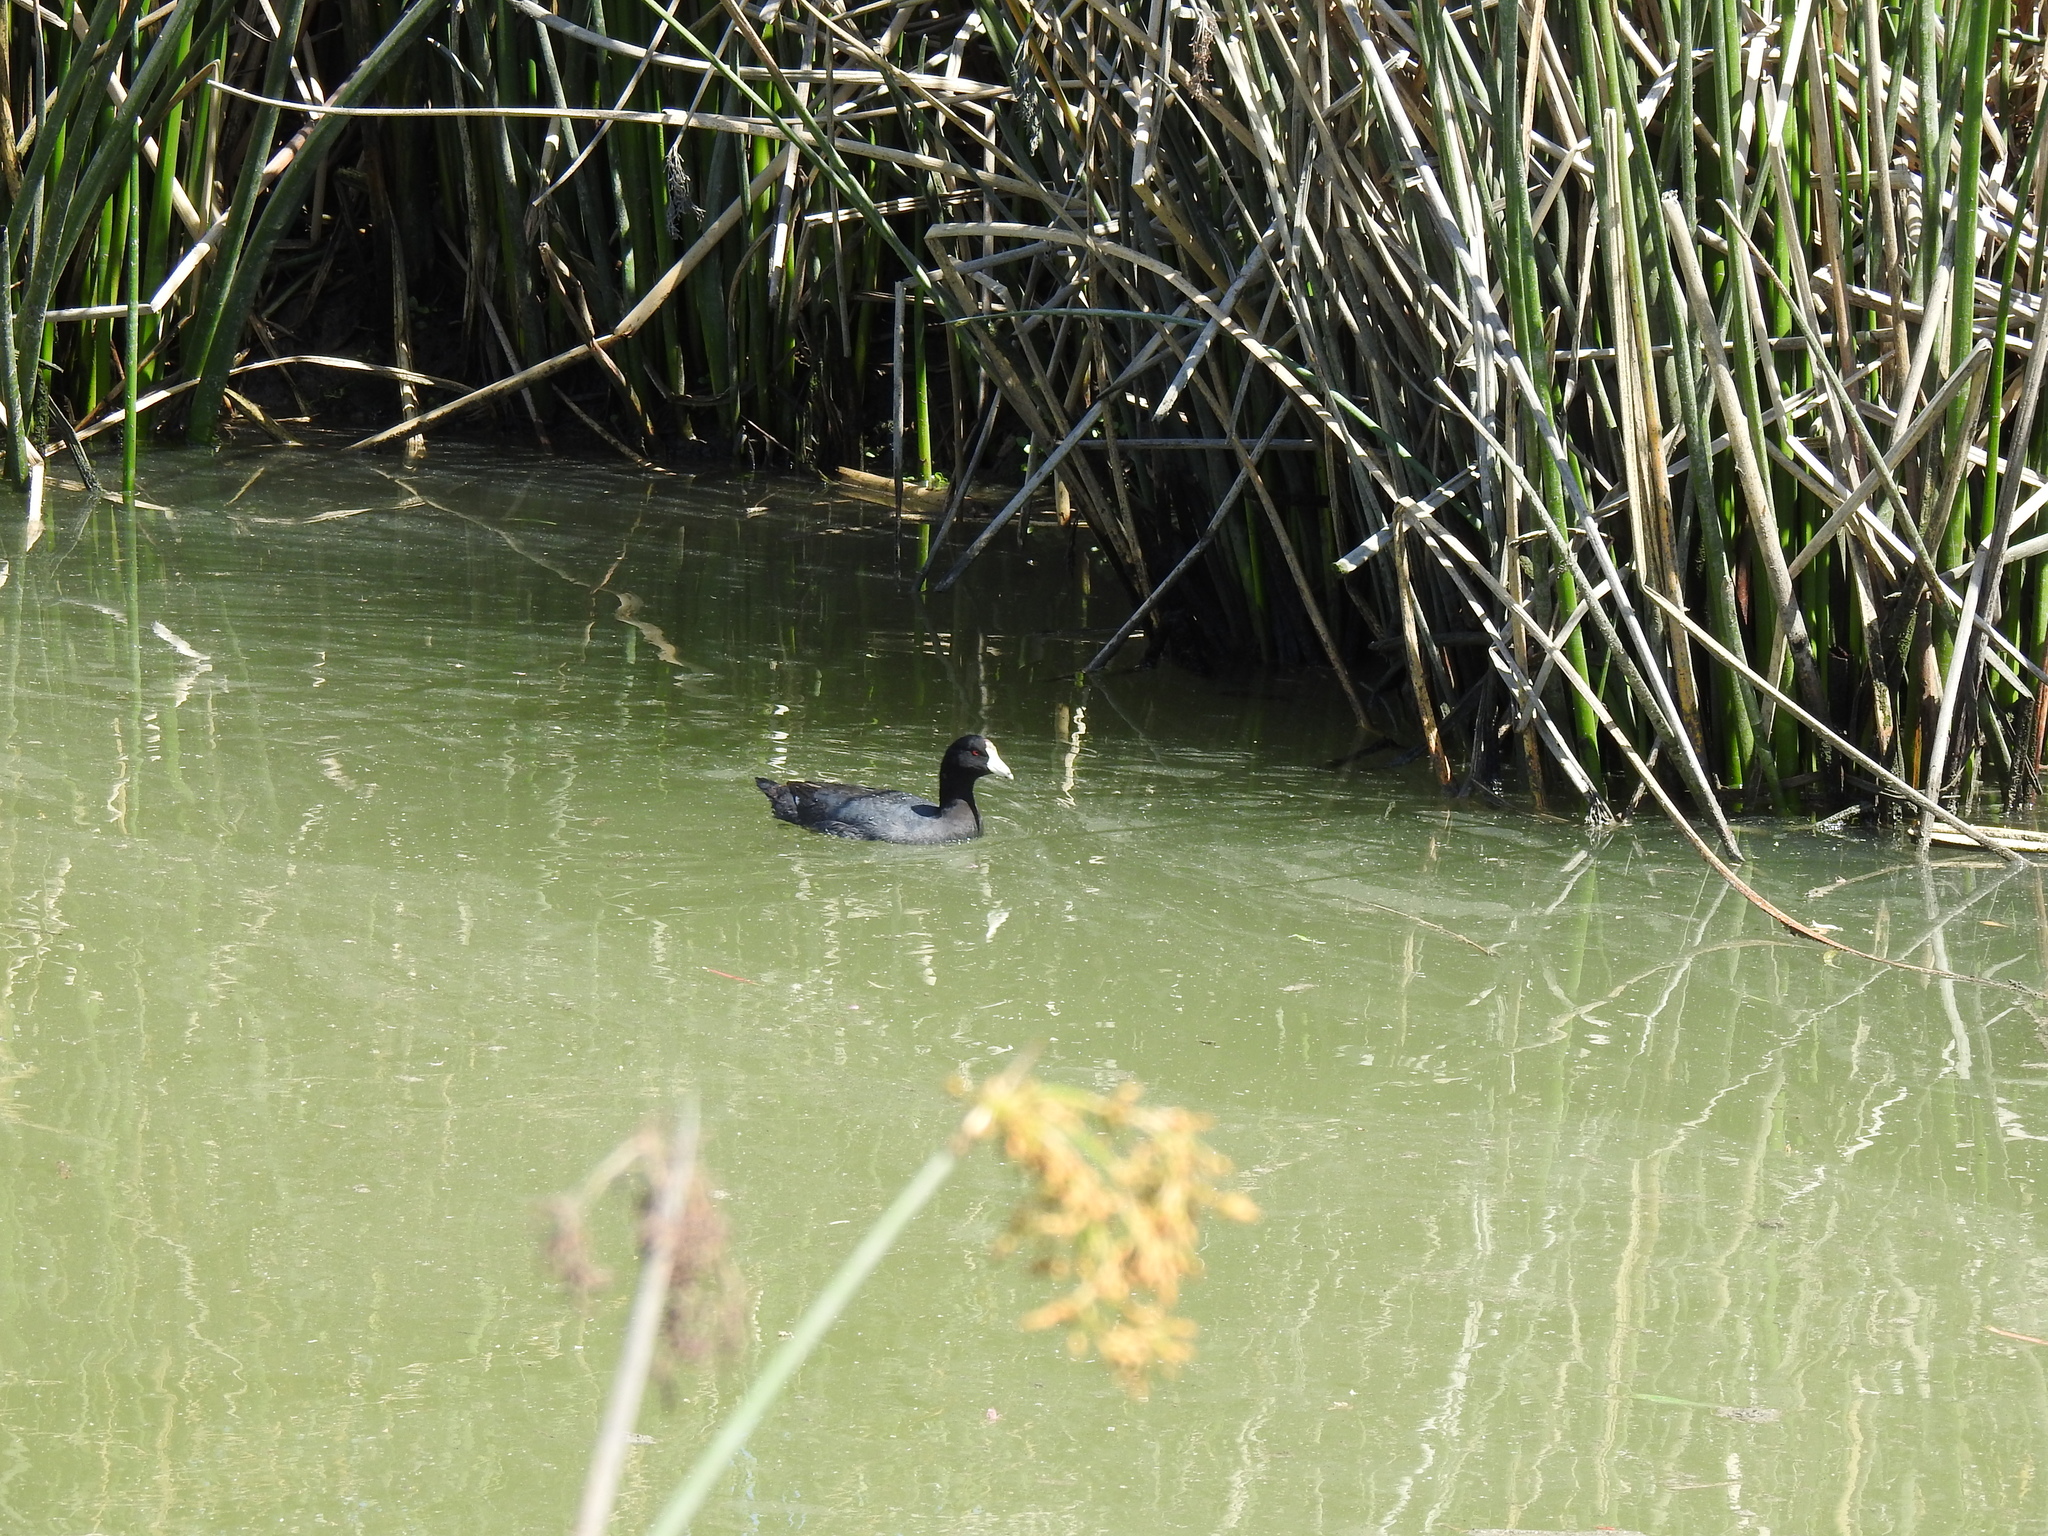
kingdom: Animalia
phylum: Chordata
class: Aves
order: Gruiformes
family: Rallidae
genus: Fulica
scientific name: Fulica americana
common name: American coot
